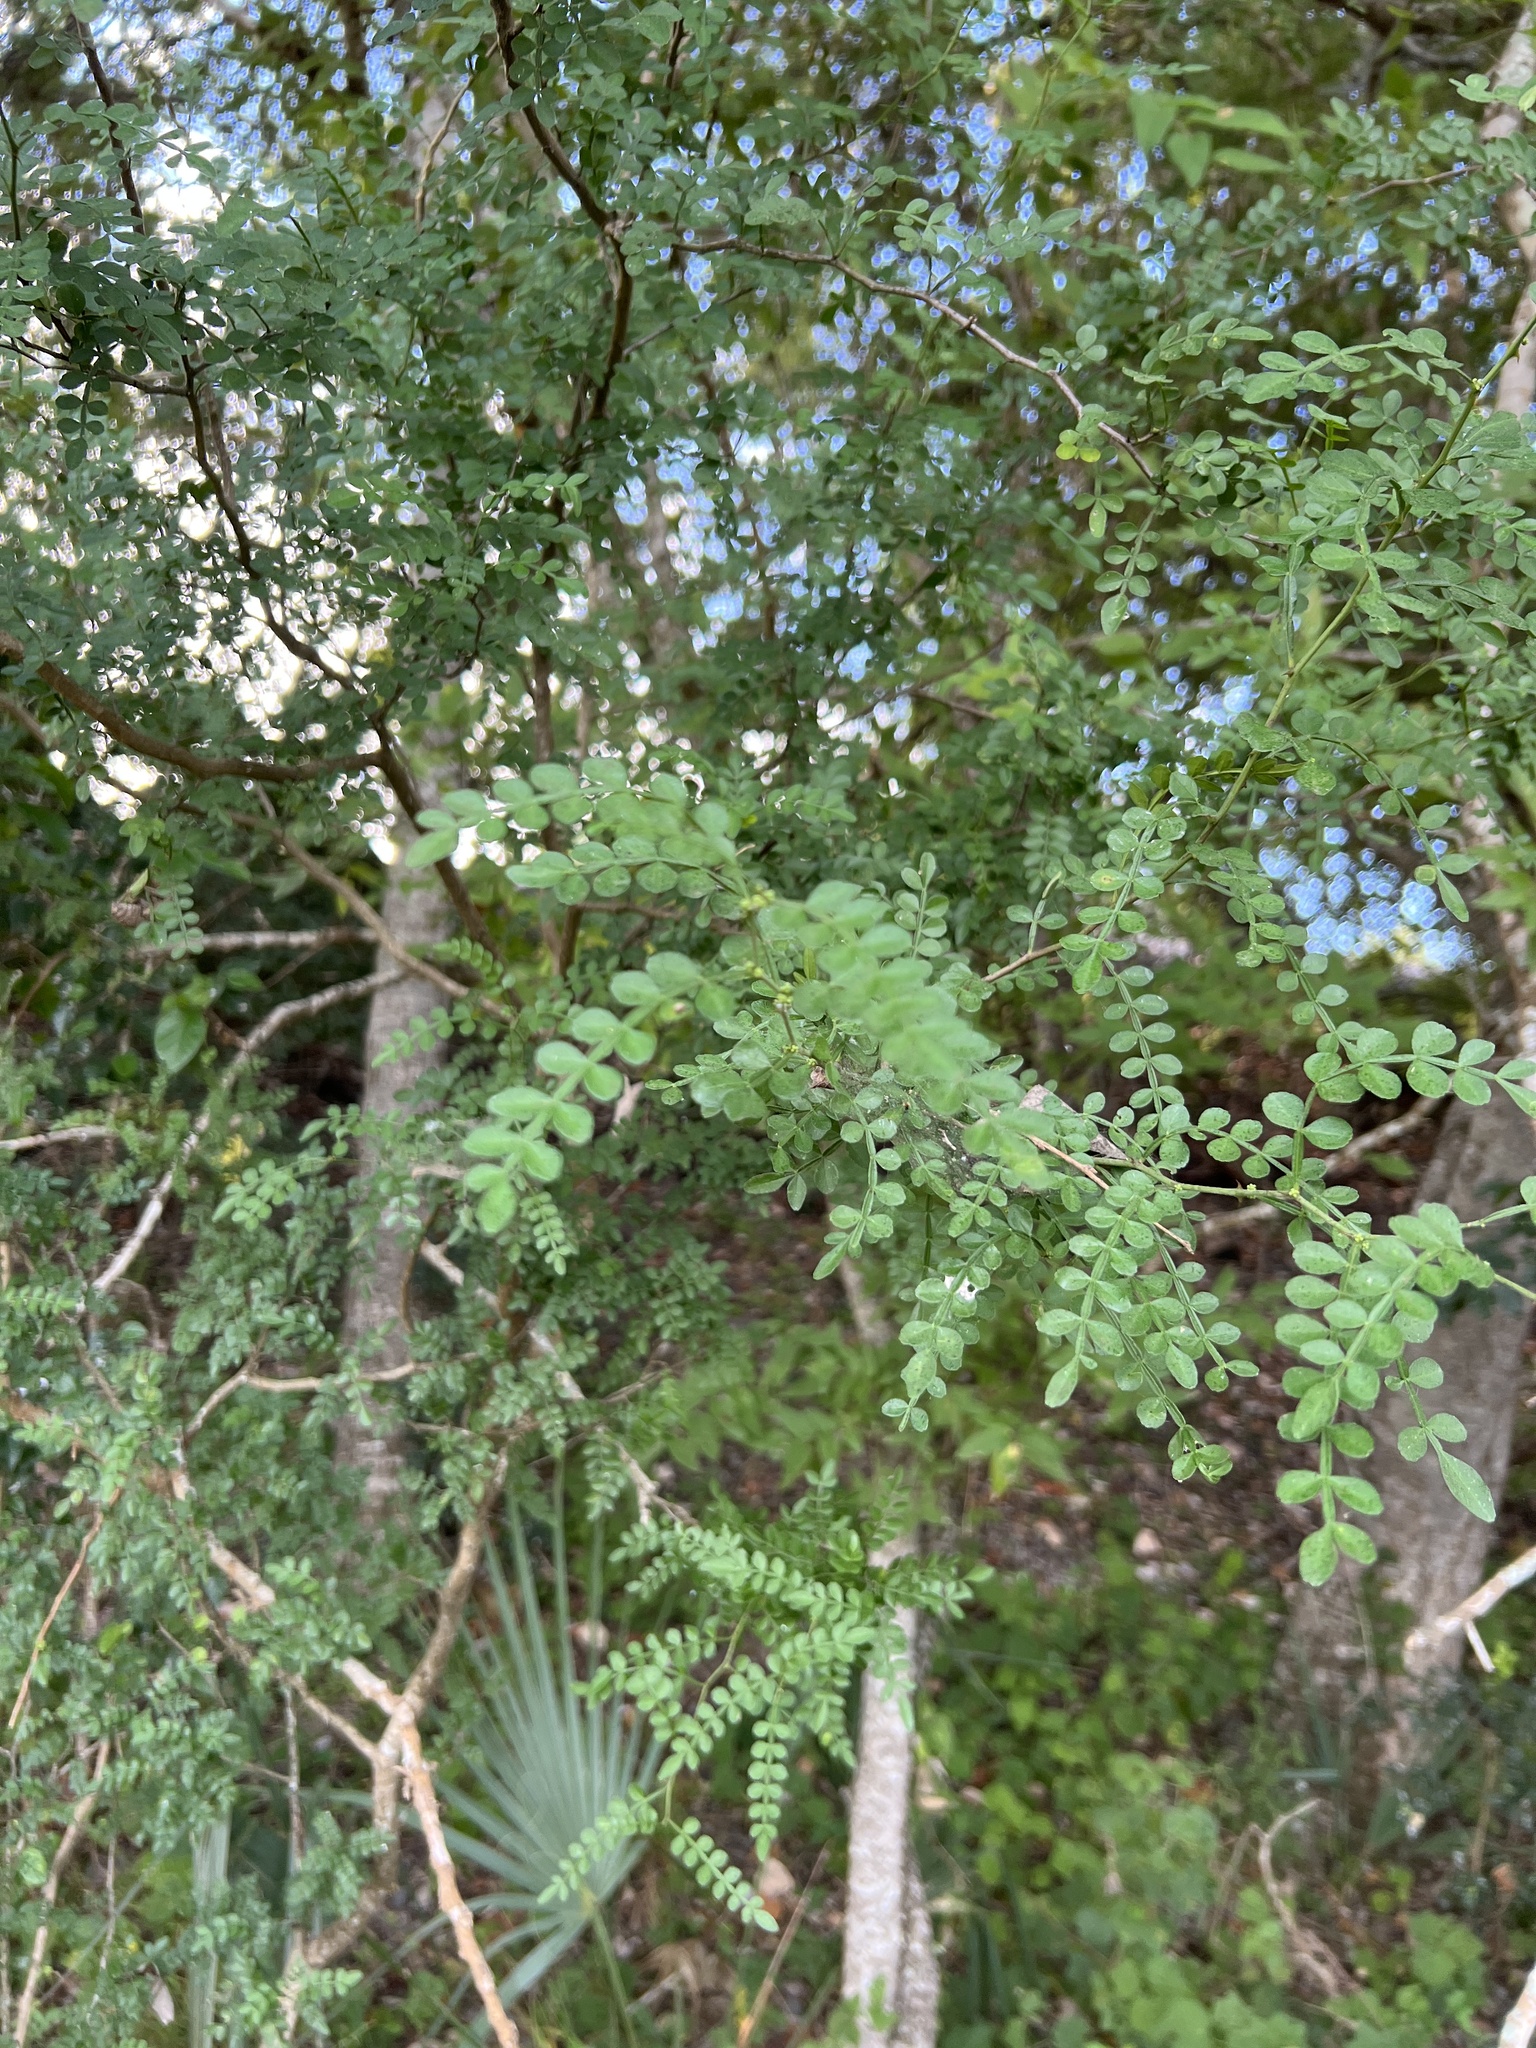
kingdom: Plantae
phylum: Tracheophyta
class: Magnoliopsida
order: Sapindales
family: Rutaceae
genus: Zanthoxylum
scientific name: Zanthoxylum fagara
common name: Lime prickly-ash
